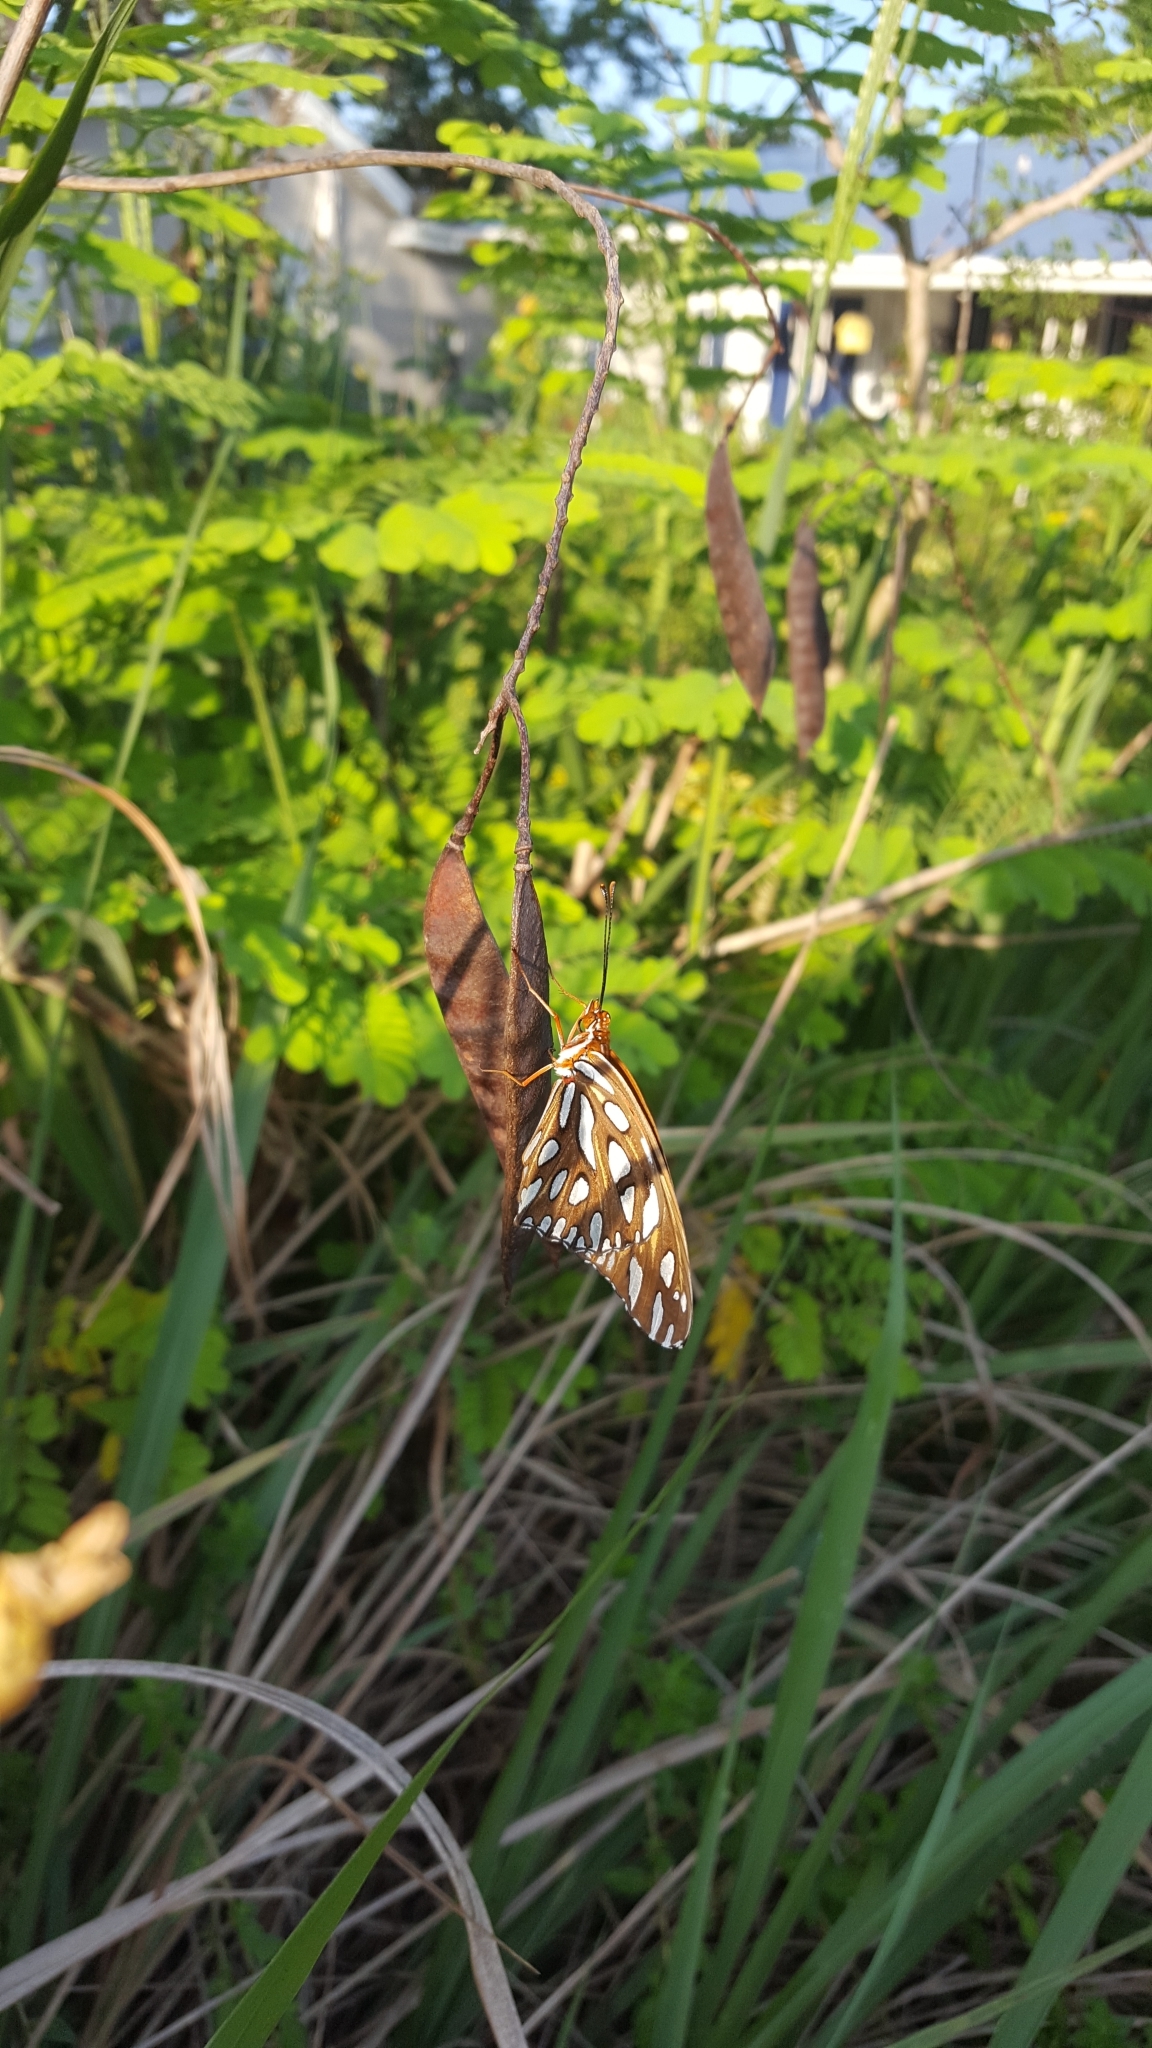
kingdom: Animalia
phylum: Arthropoda
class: Insecta
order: Lepidoptera
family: Nymphalidae
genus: Dione
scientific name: Dione vanillae
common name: Gulf fritillary
